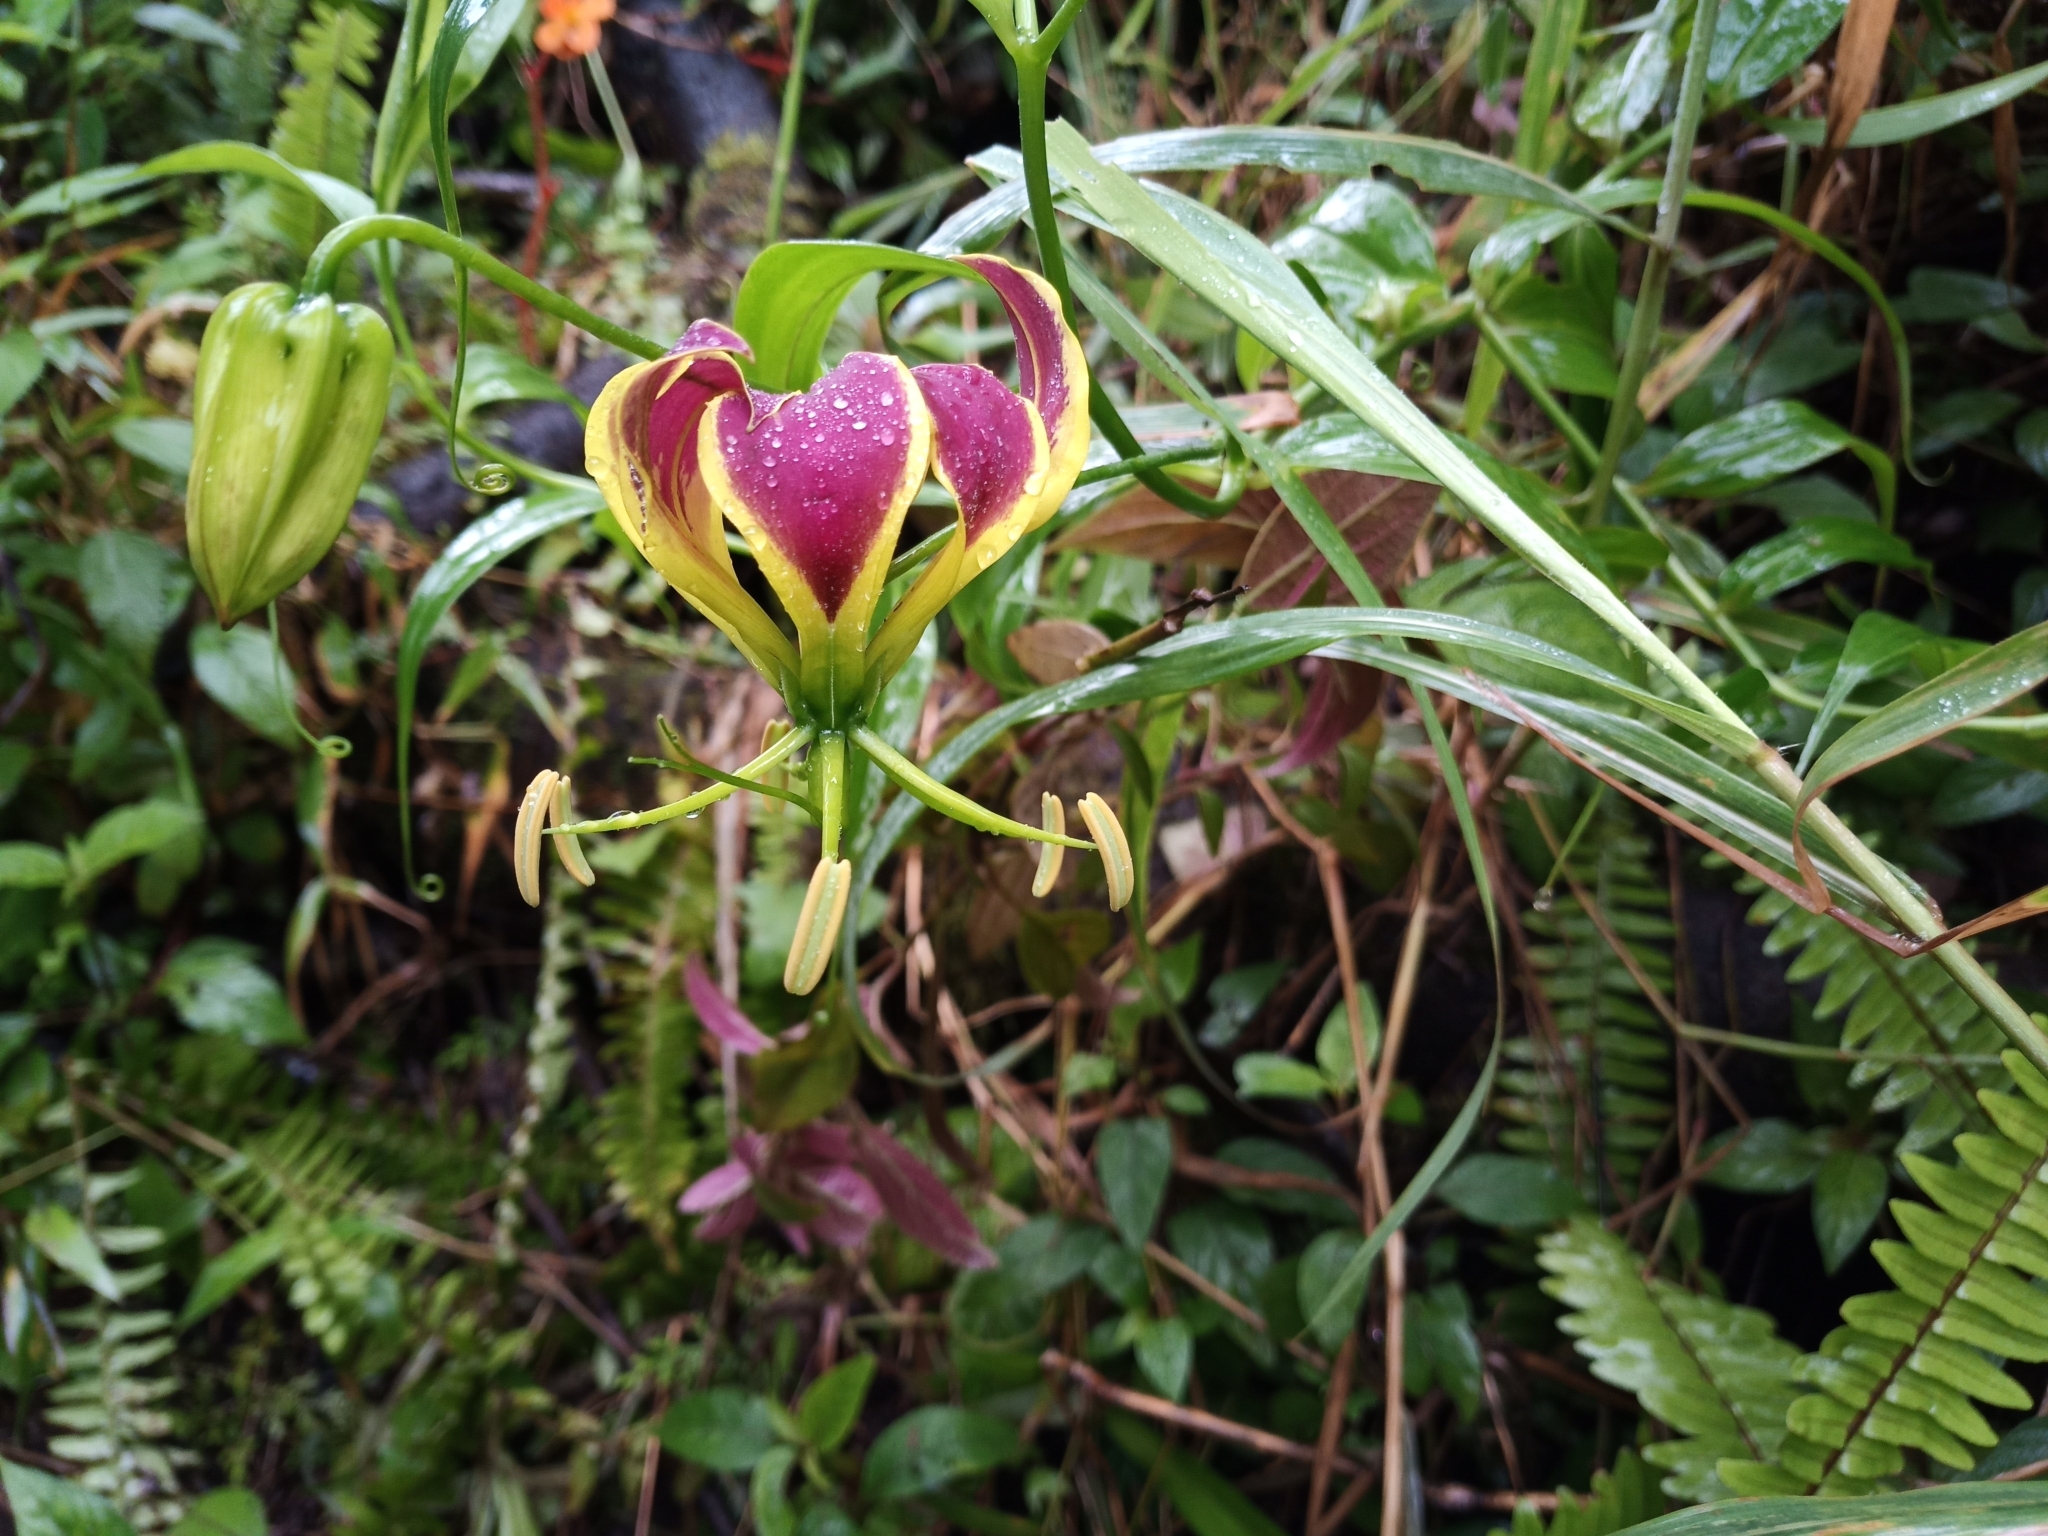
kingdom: Plantae
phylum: Tracheophyta
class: Liliopsida
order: Liliales
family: Colchicaceae
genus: Gloriosa
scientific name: Gloriosa superba
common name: Flame lily
